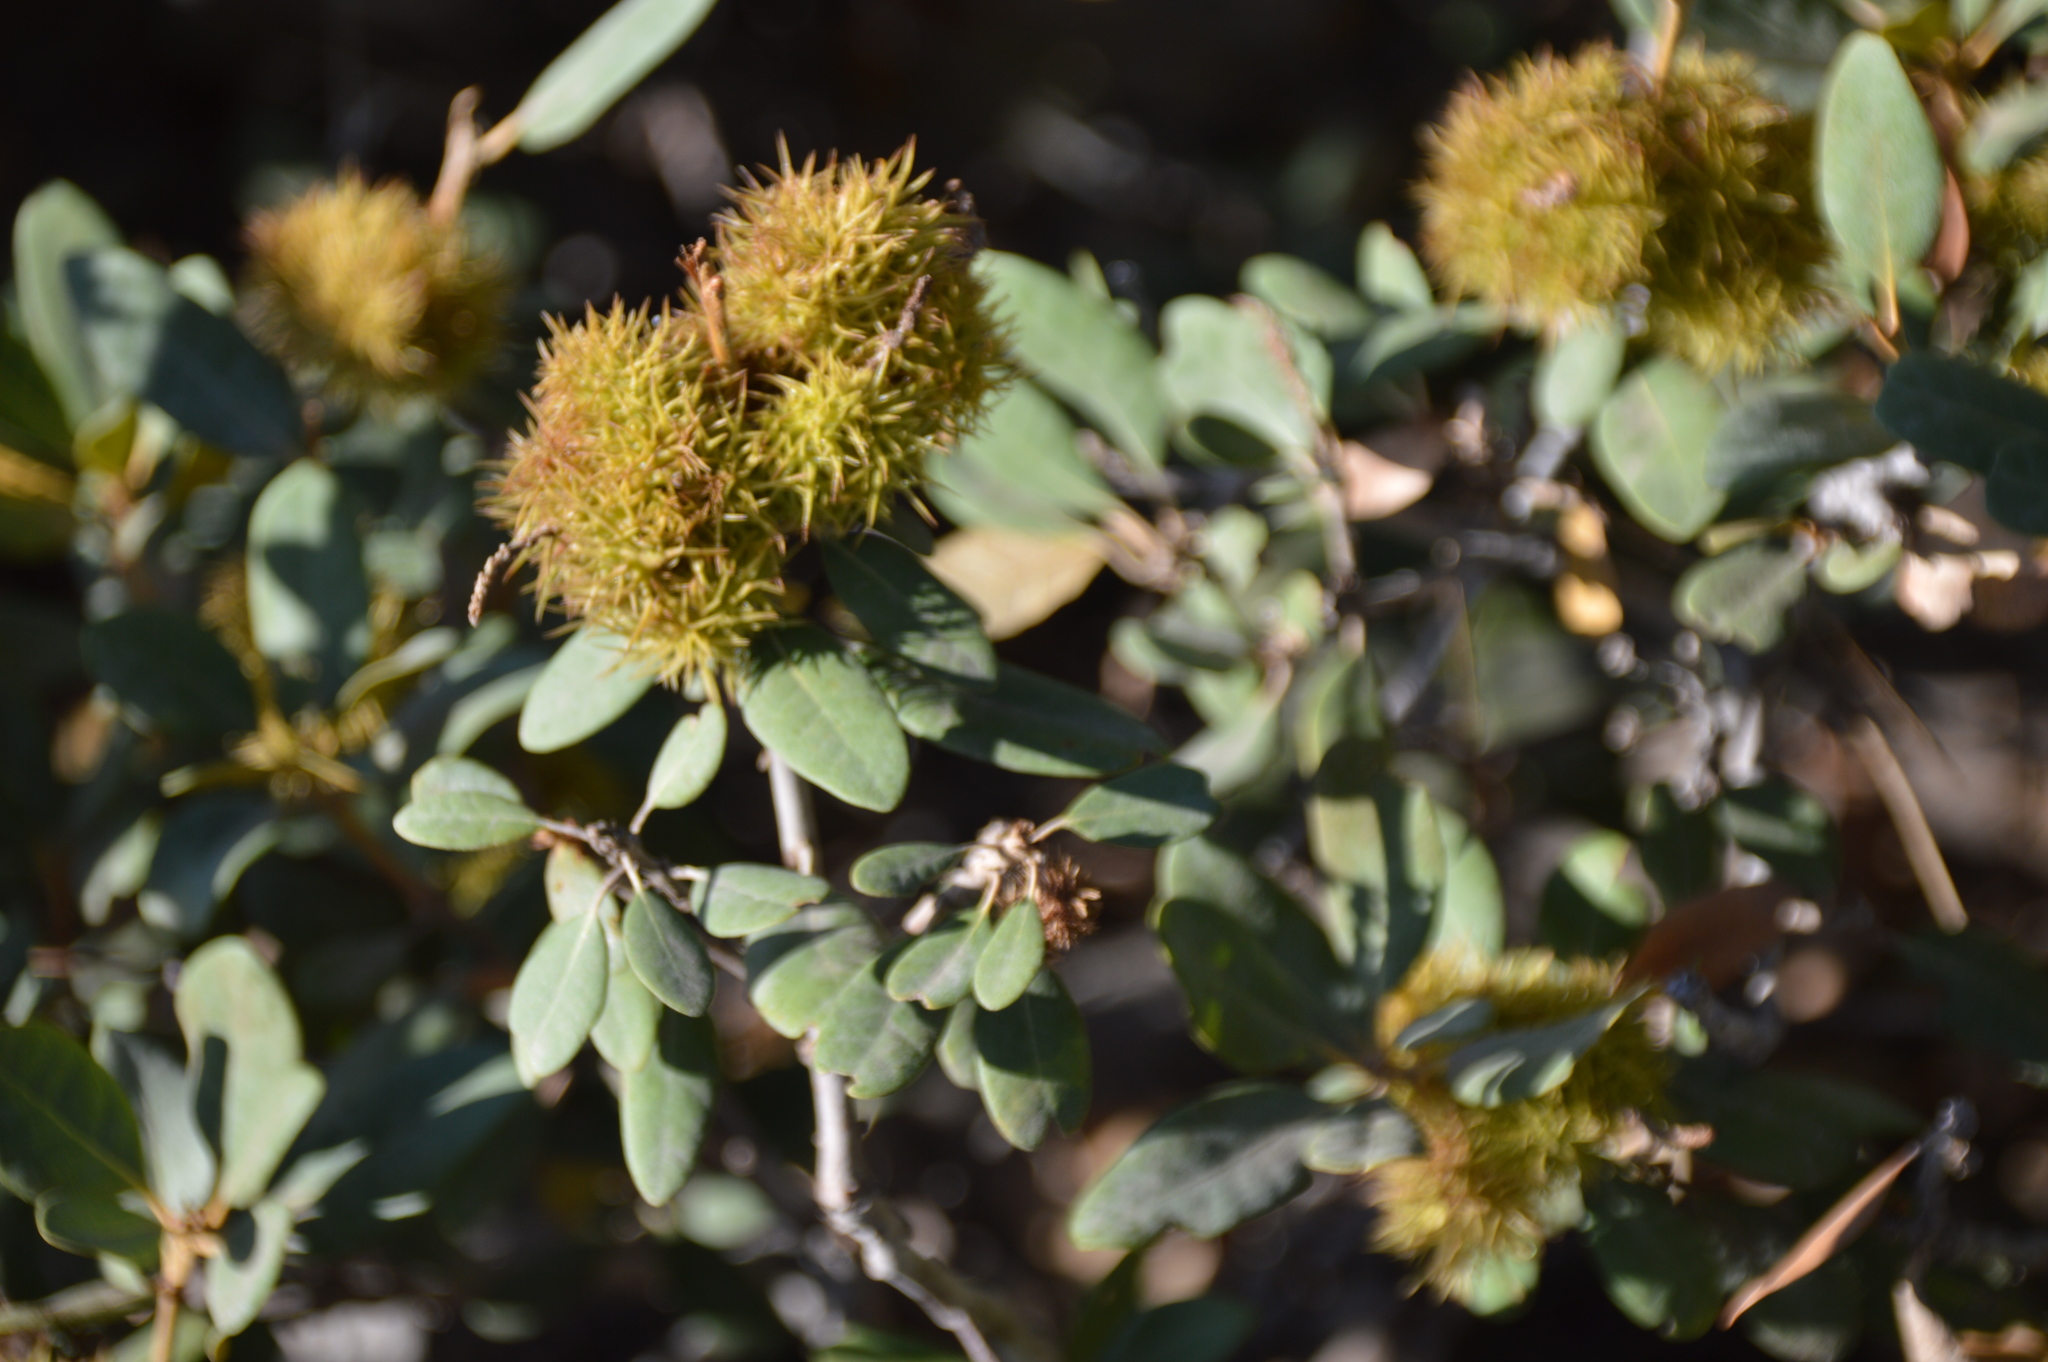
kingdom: Plantae
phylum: Tracheophyta
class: Magnoliopsida
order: Fagales
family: Fagaceae
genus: Chrysolepis
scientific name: Chrysolepis sempervirens
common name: Bush chinquapin
